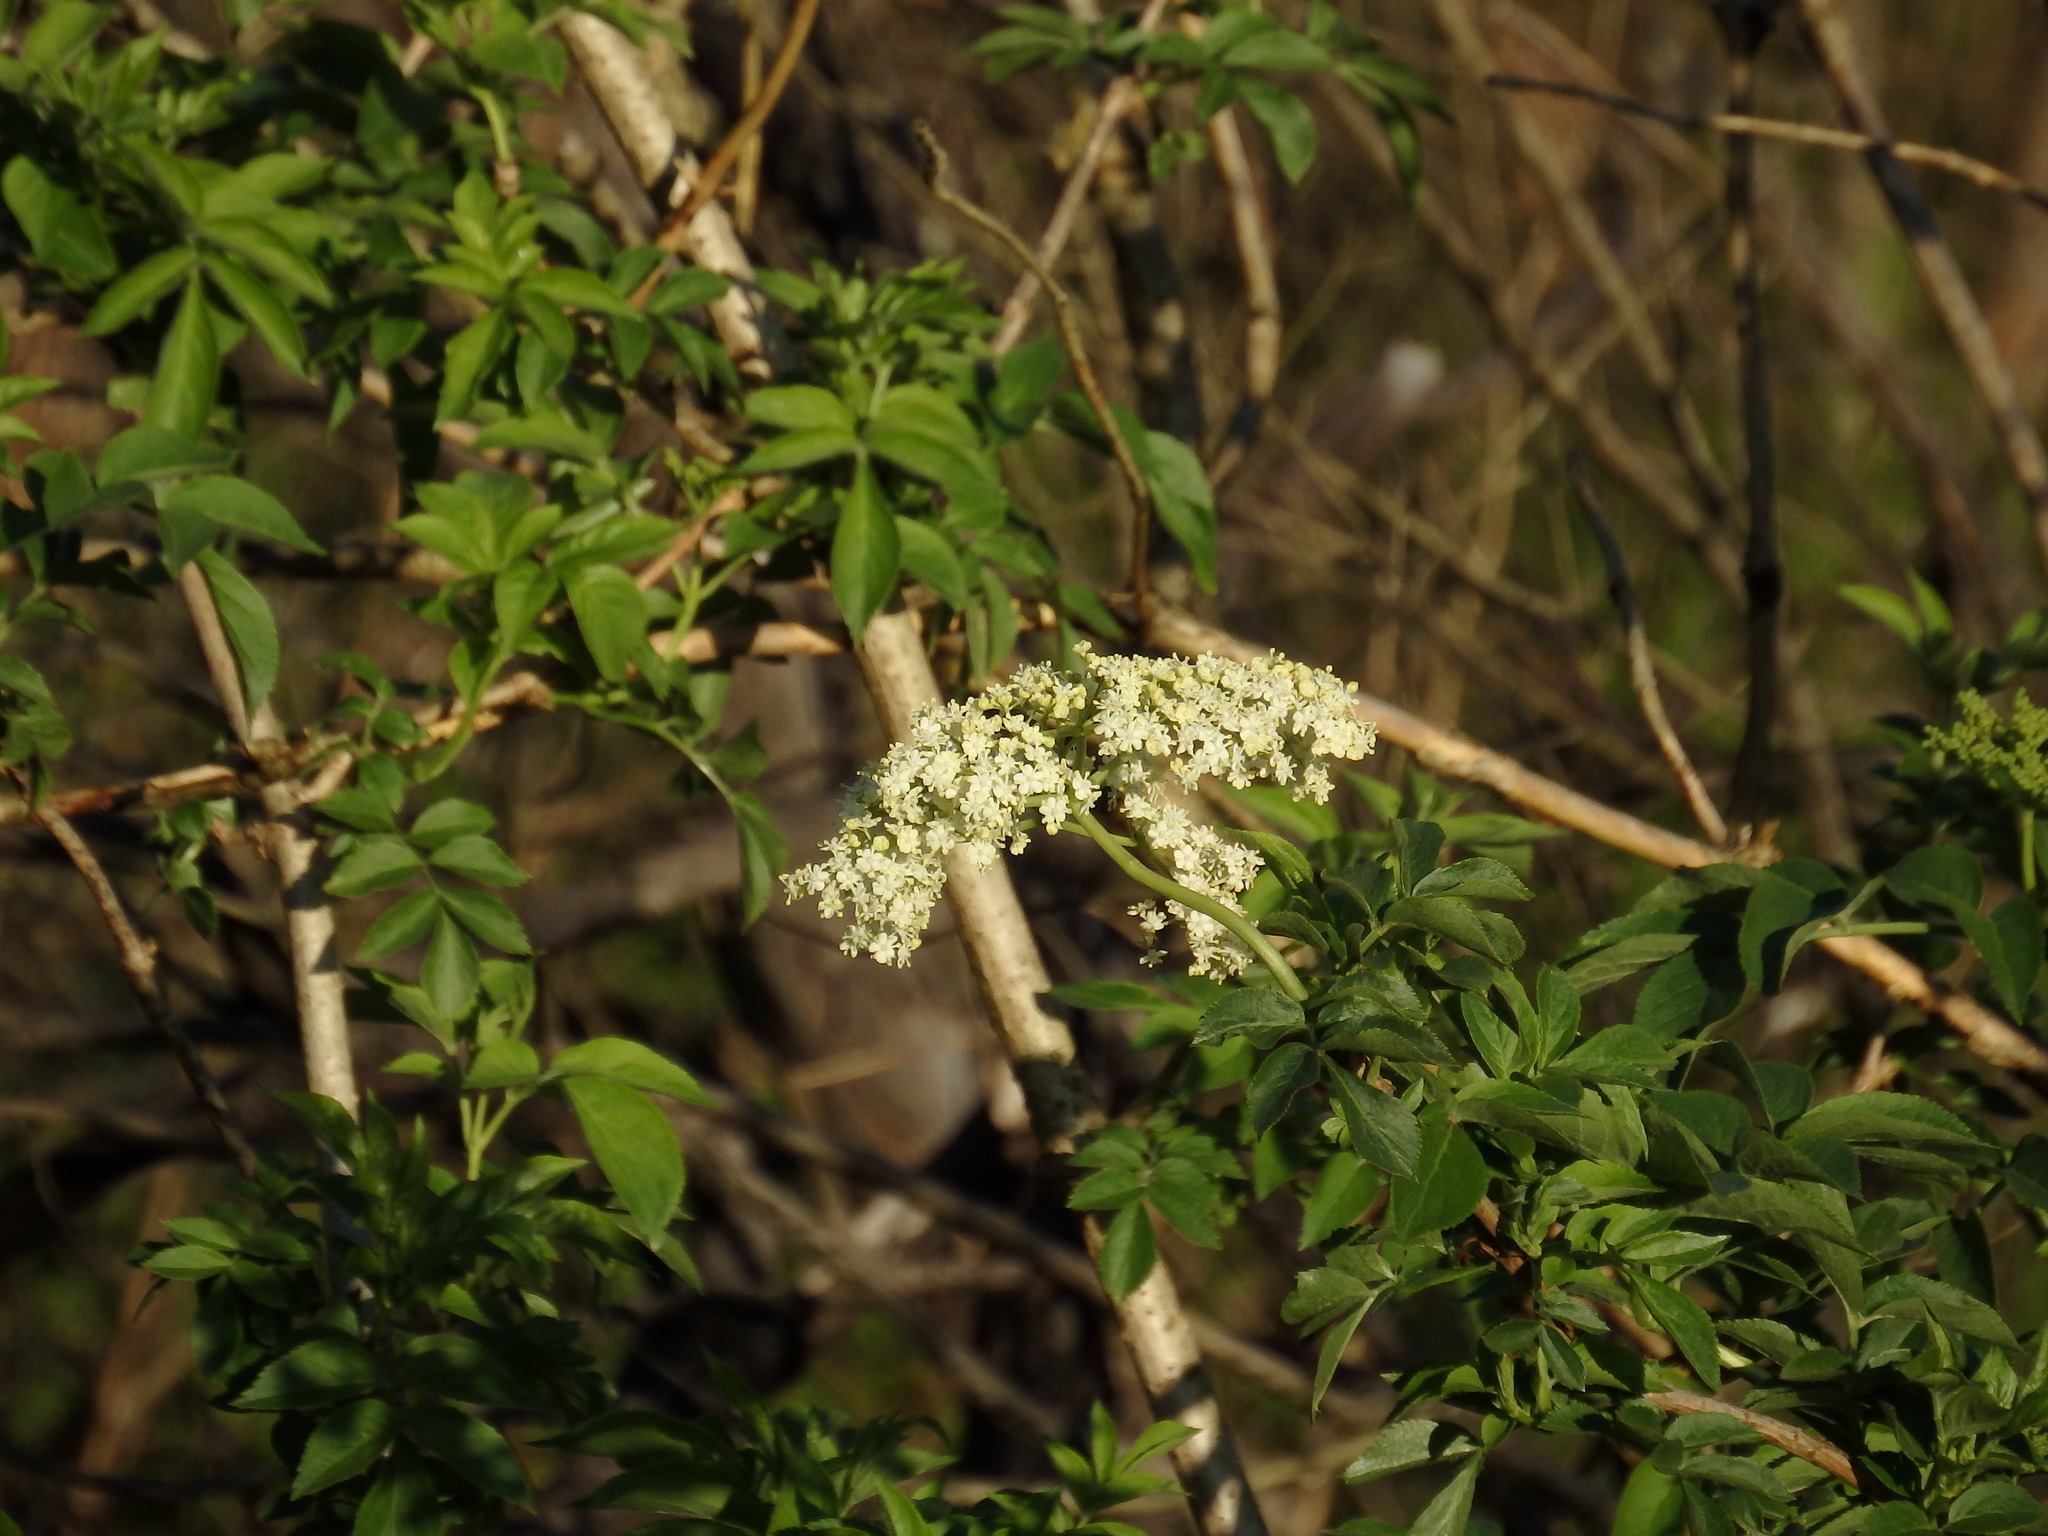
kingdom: Plantae
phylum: Tracheophyta
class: Magnoliopsida
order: Dipsacales
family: Viburnaceae
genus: Sambucus
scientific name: Sambucus nigra
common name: Elder
